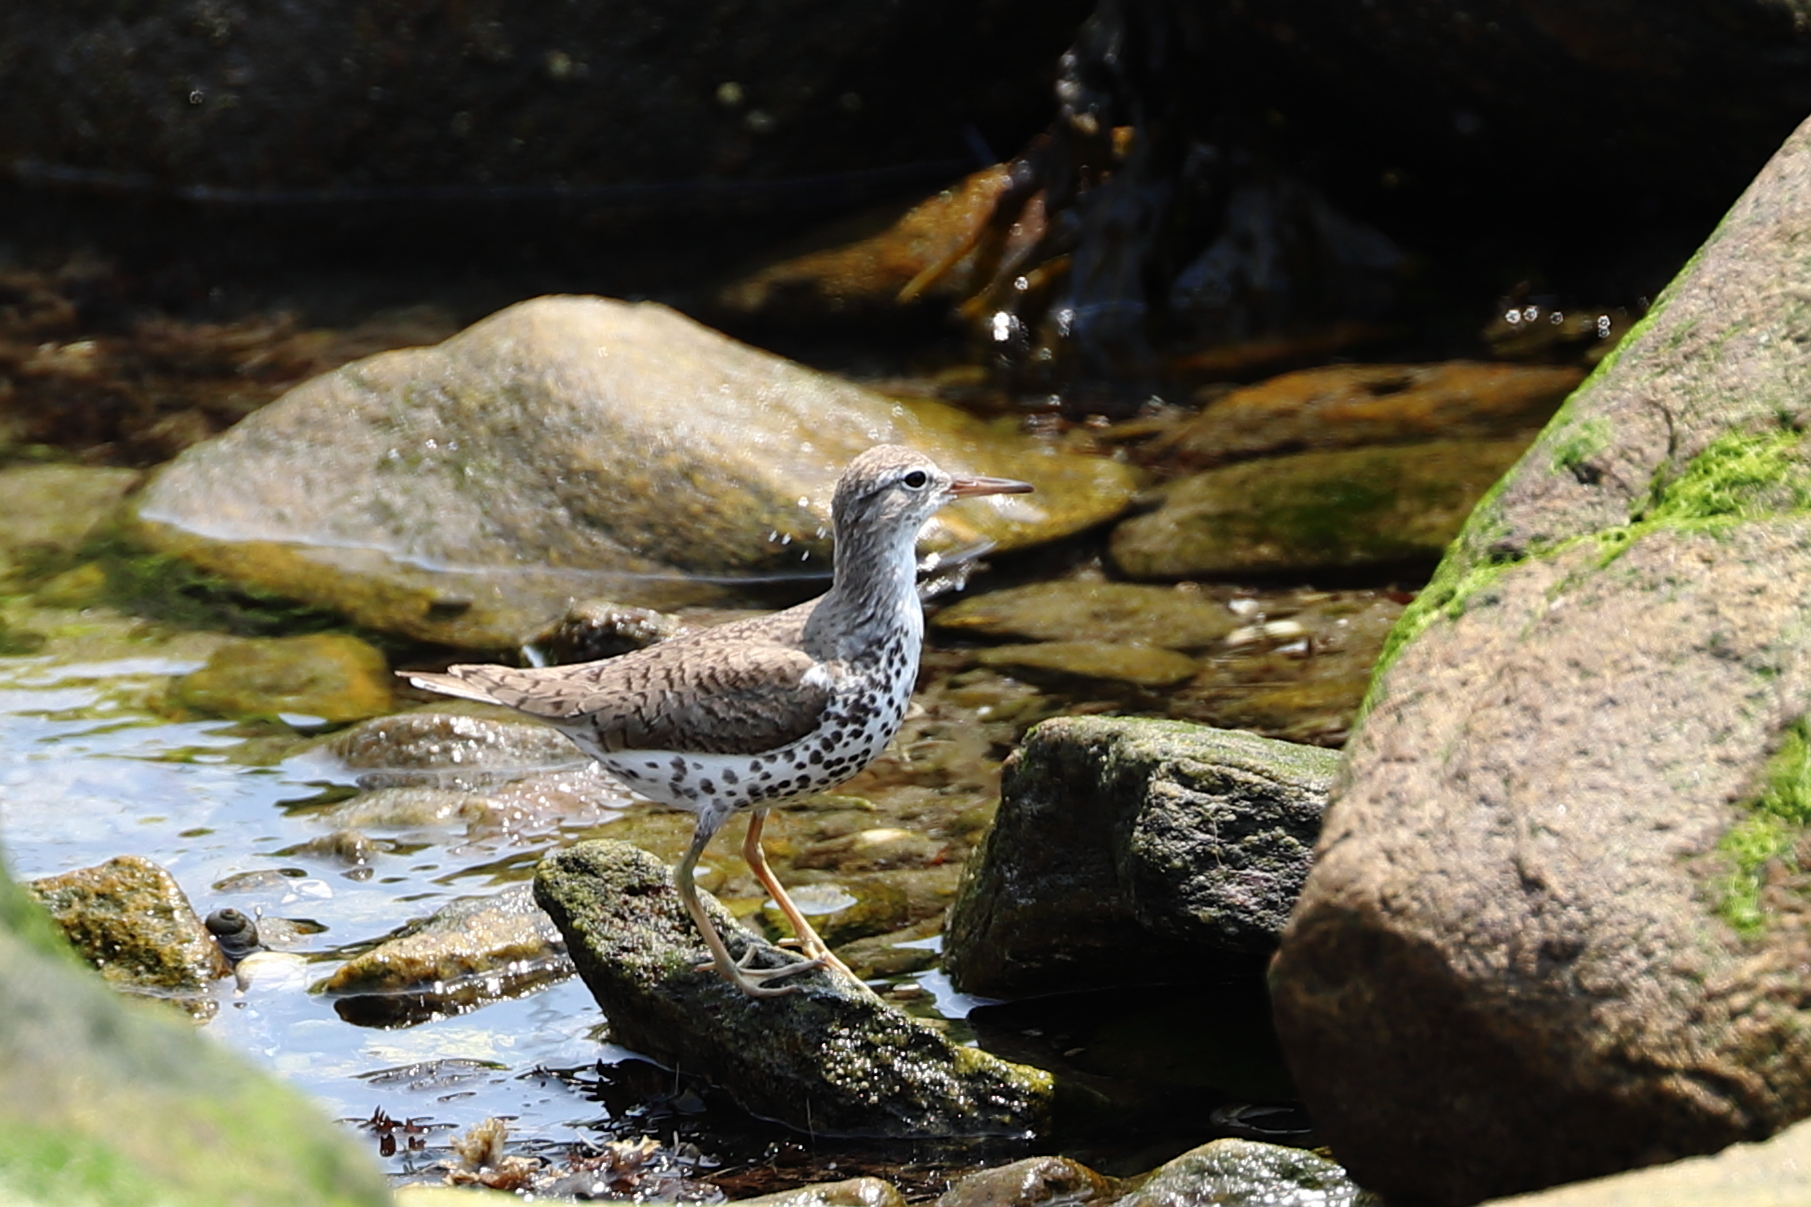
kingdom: Animalia
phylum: Chordata
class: Aves
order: Charadriiformes
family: Scolopacidae
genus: Actitis
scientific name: Actitis macularius
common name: Spotted sandpiper
